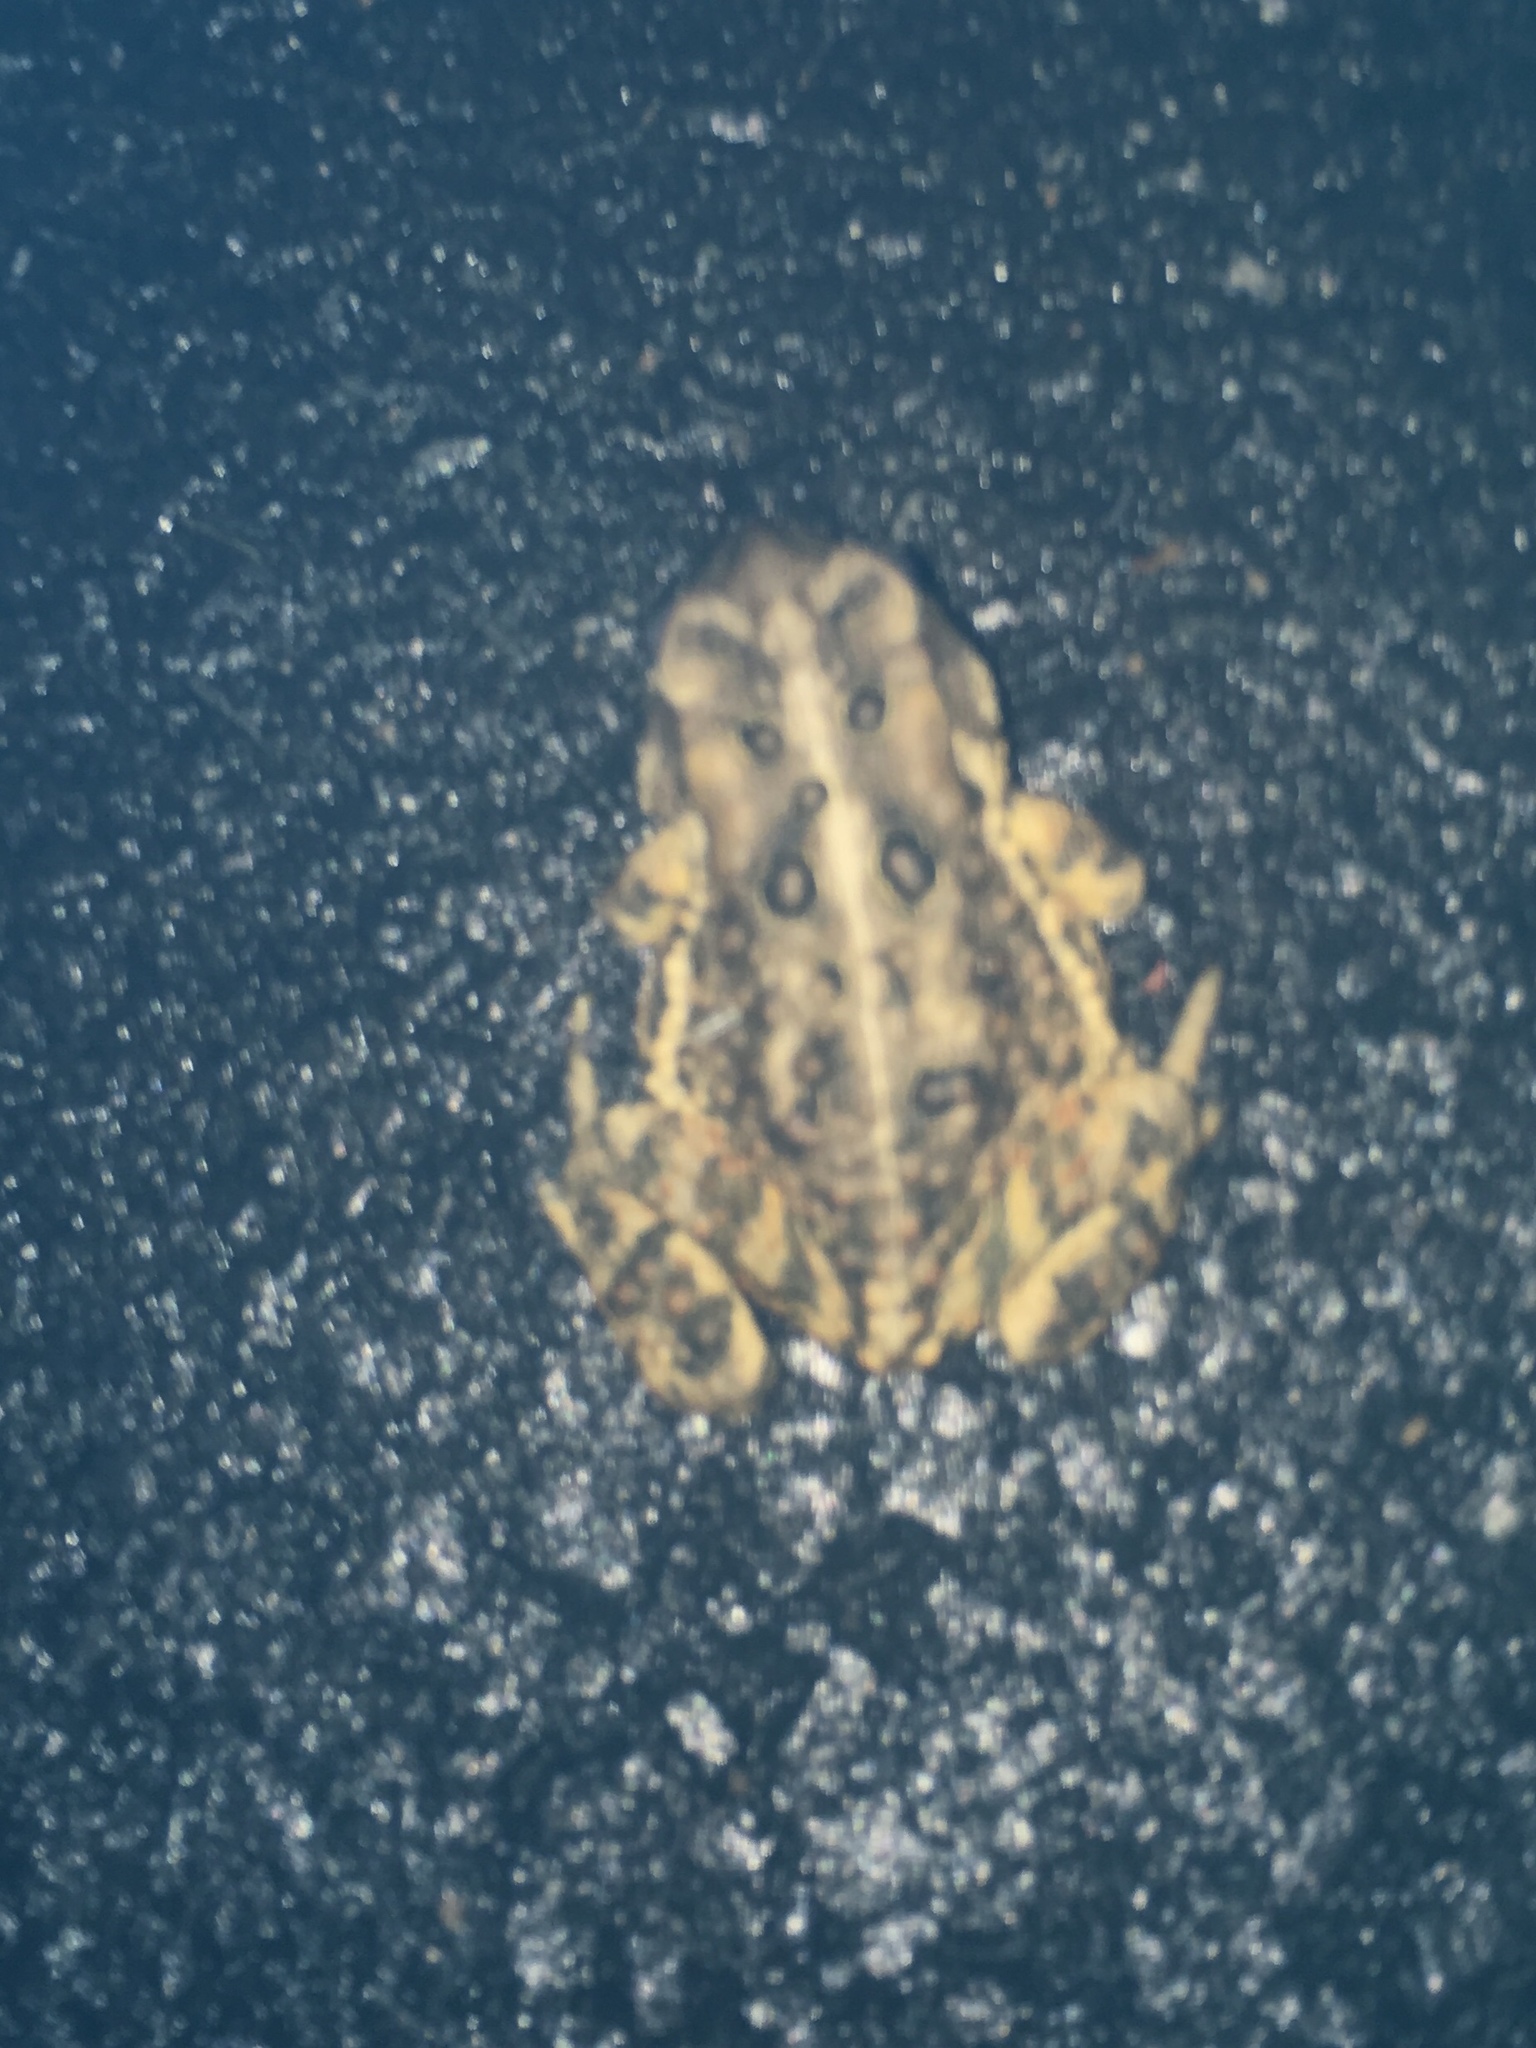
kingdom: Animalia
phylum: Chordata
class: Amphibia
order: Anura
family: Bufonidae
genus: Anaxyrus
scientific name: Anaxyrus americanus
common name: American toad
